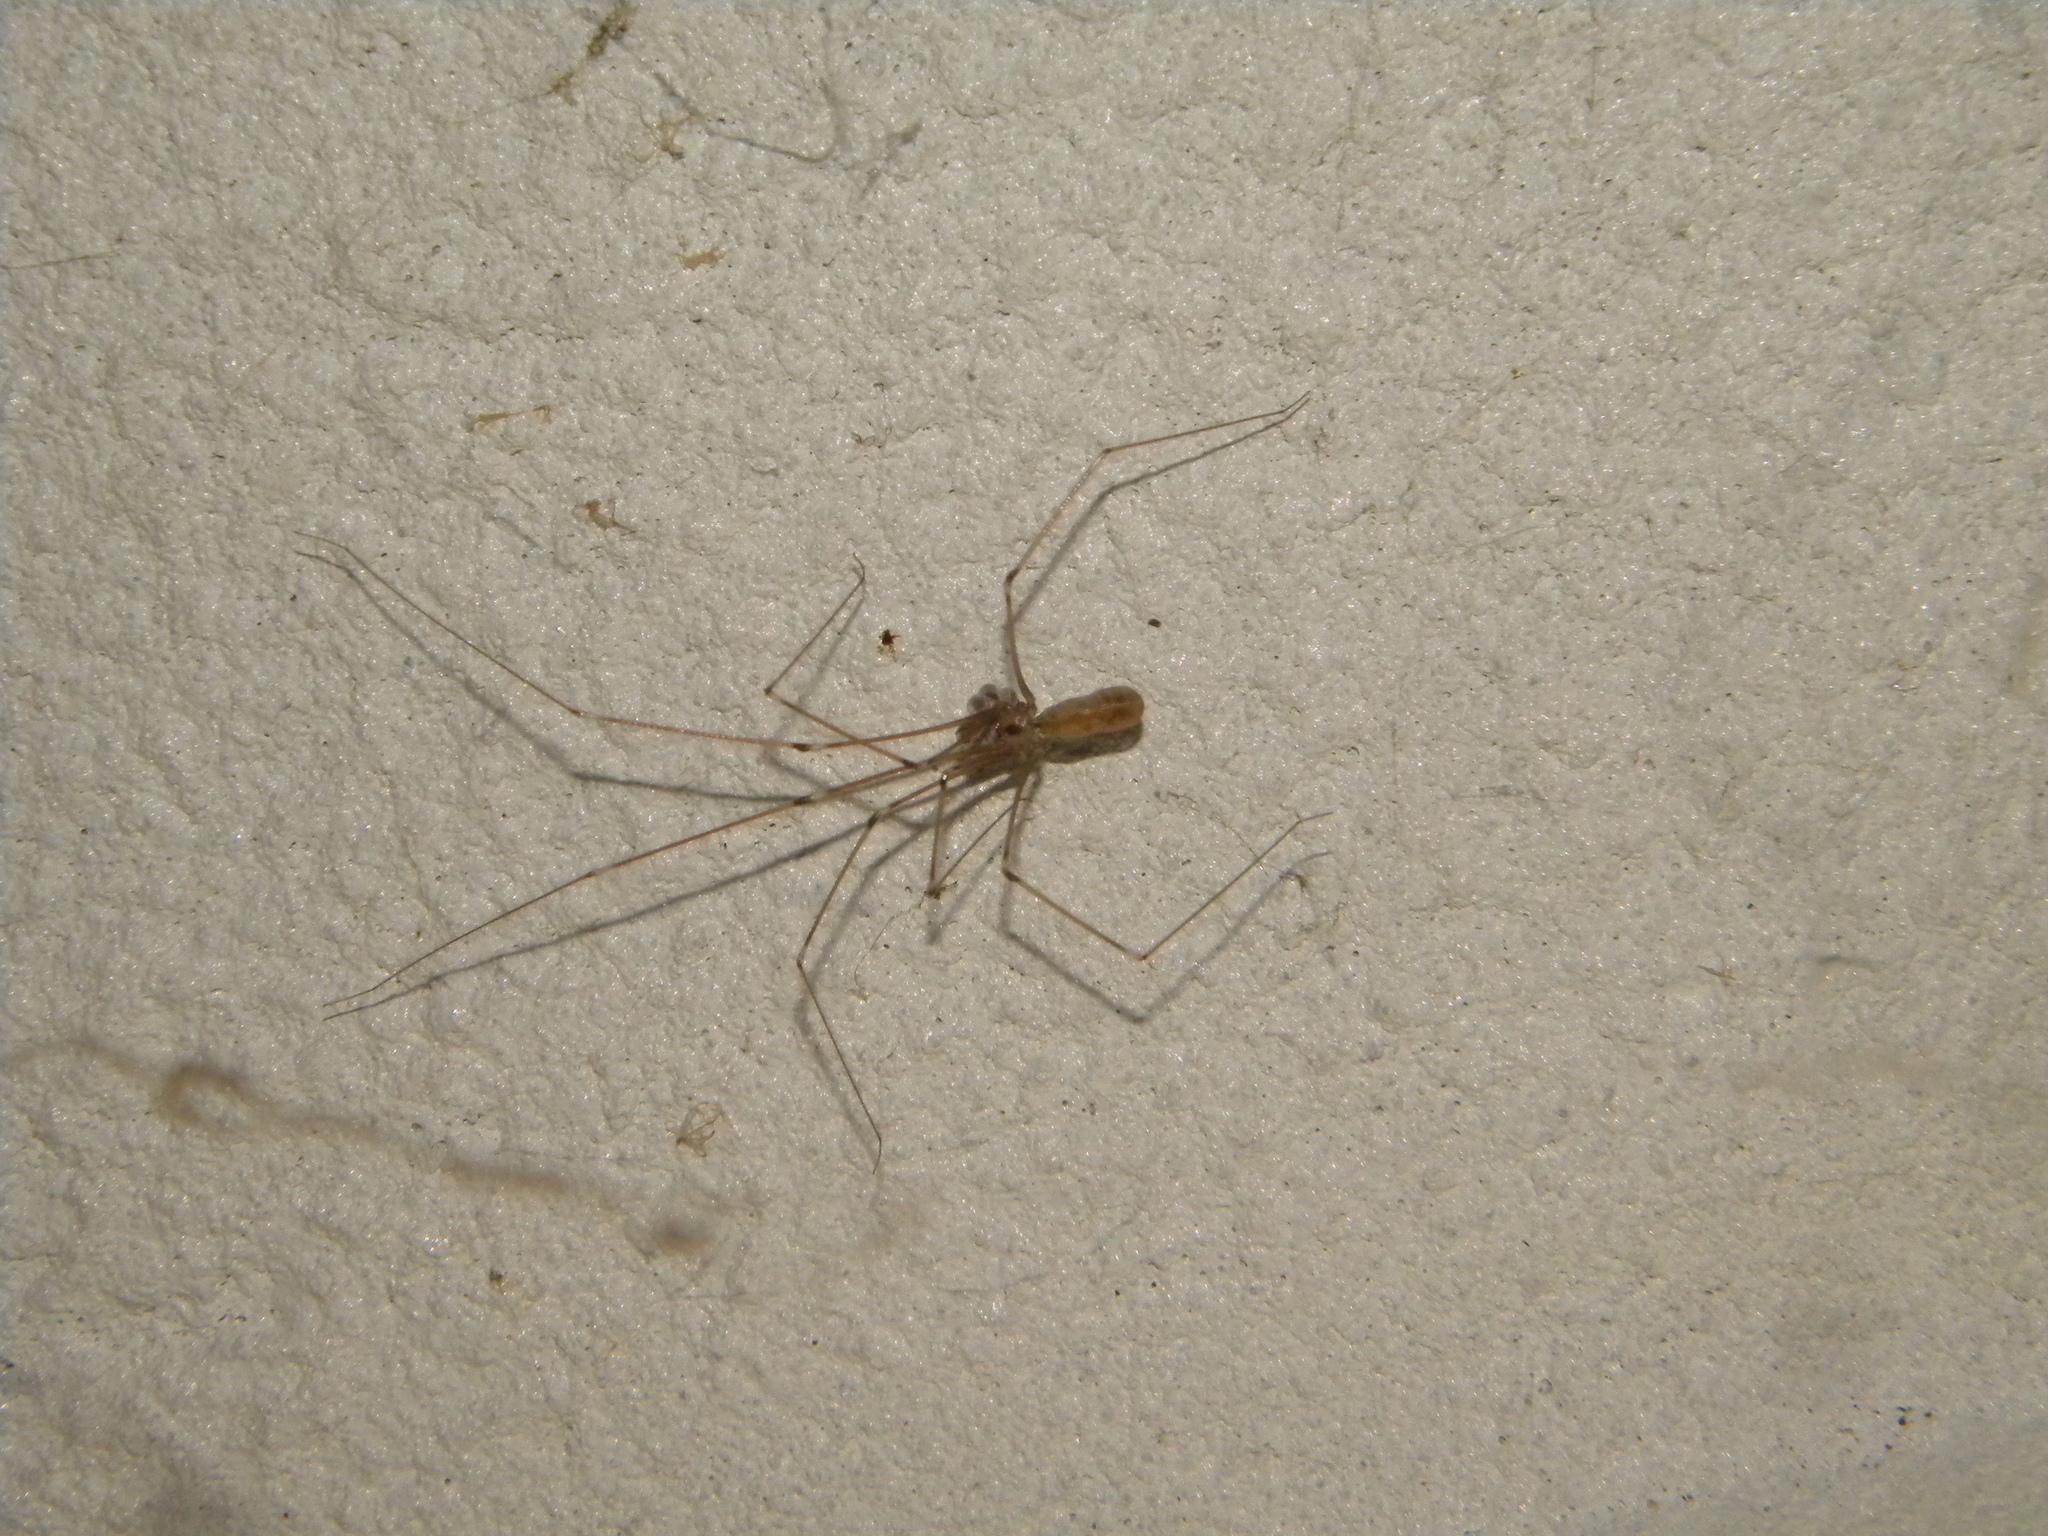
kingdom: Animalia
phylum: Arthropoda
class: Arachnida
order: Araneae
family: Pholcidae
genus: Pholcus
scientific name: Pholcus phalangioides
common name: Longbodied cellar spider
